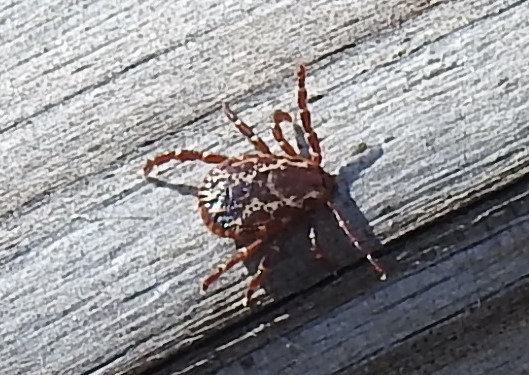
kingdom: Animalia
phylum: Arthropoda
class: Arachnida
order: Ixodida
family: Ixodidae
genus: Dermacentor
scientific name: Dermacentor variabilis
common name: American dog tick
